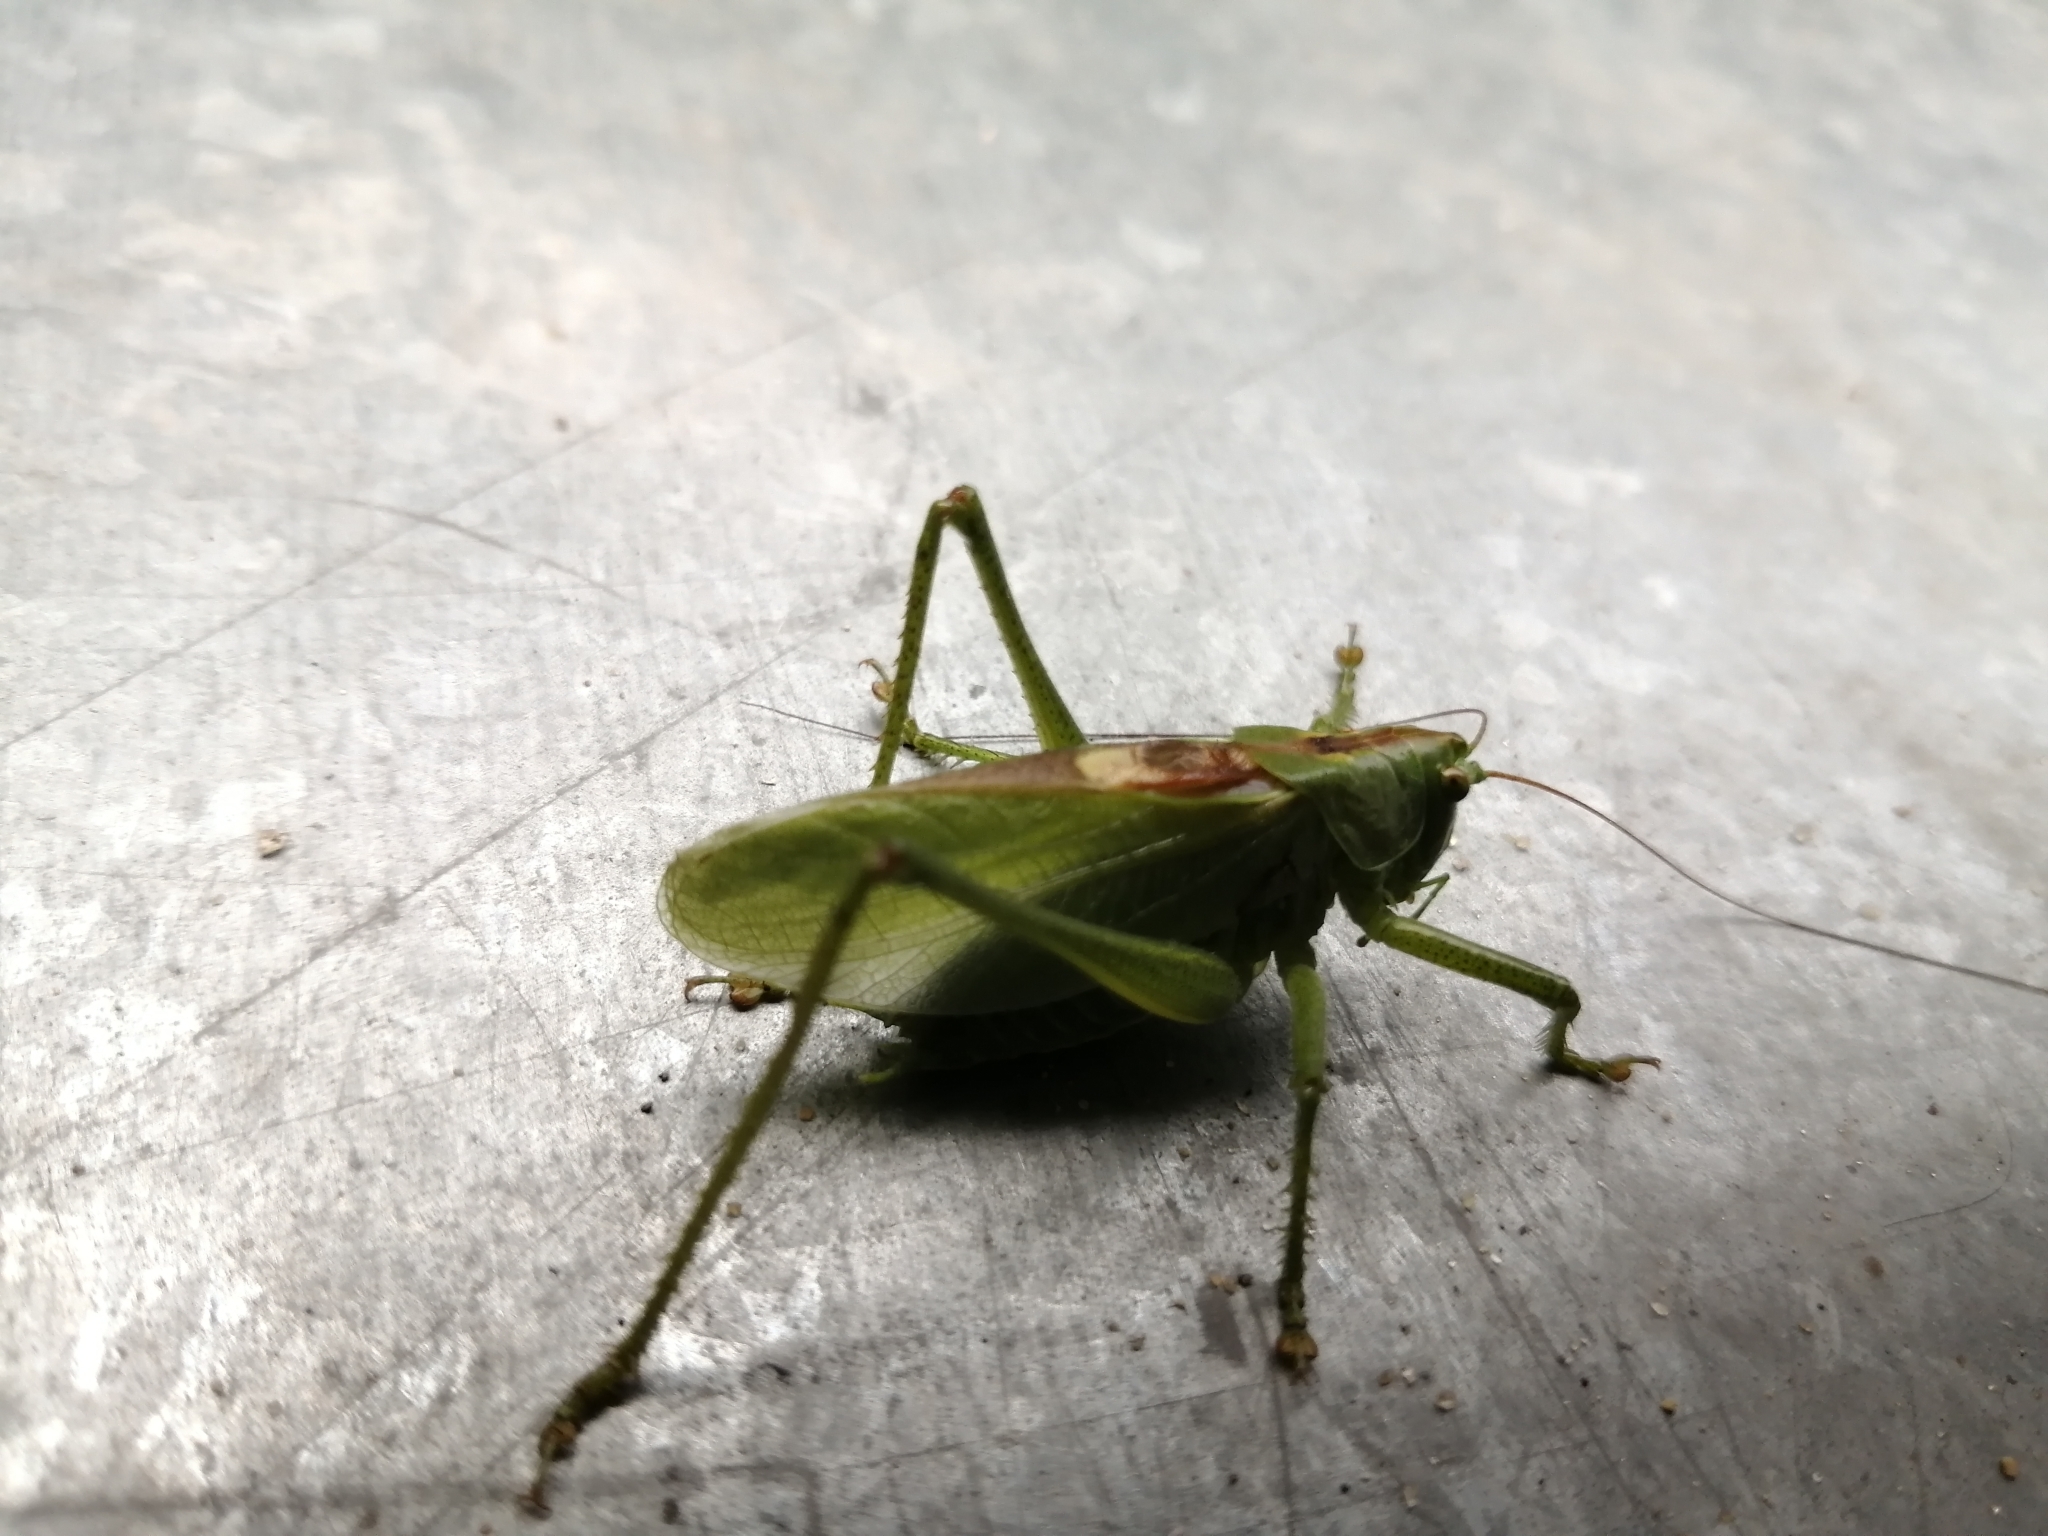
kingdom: Animalia
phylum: Arthropoda
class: Insecta
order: Orthoptera
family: Tettigoniidae
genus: Tettigonia
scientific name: Tettigonia cantans
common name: Upland green bush-cricket
